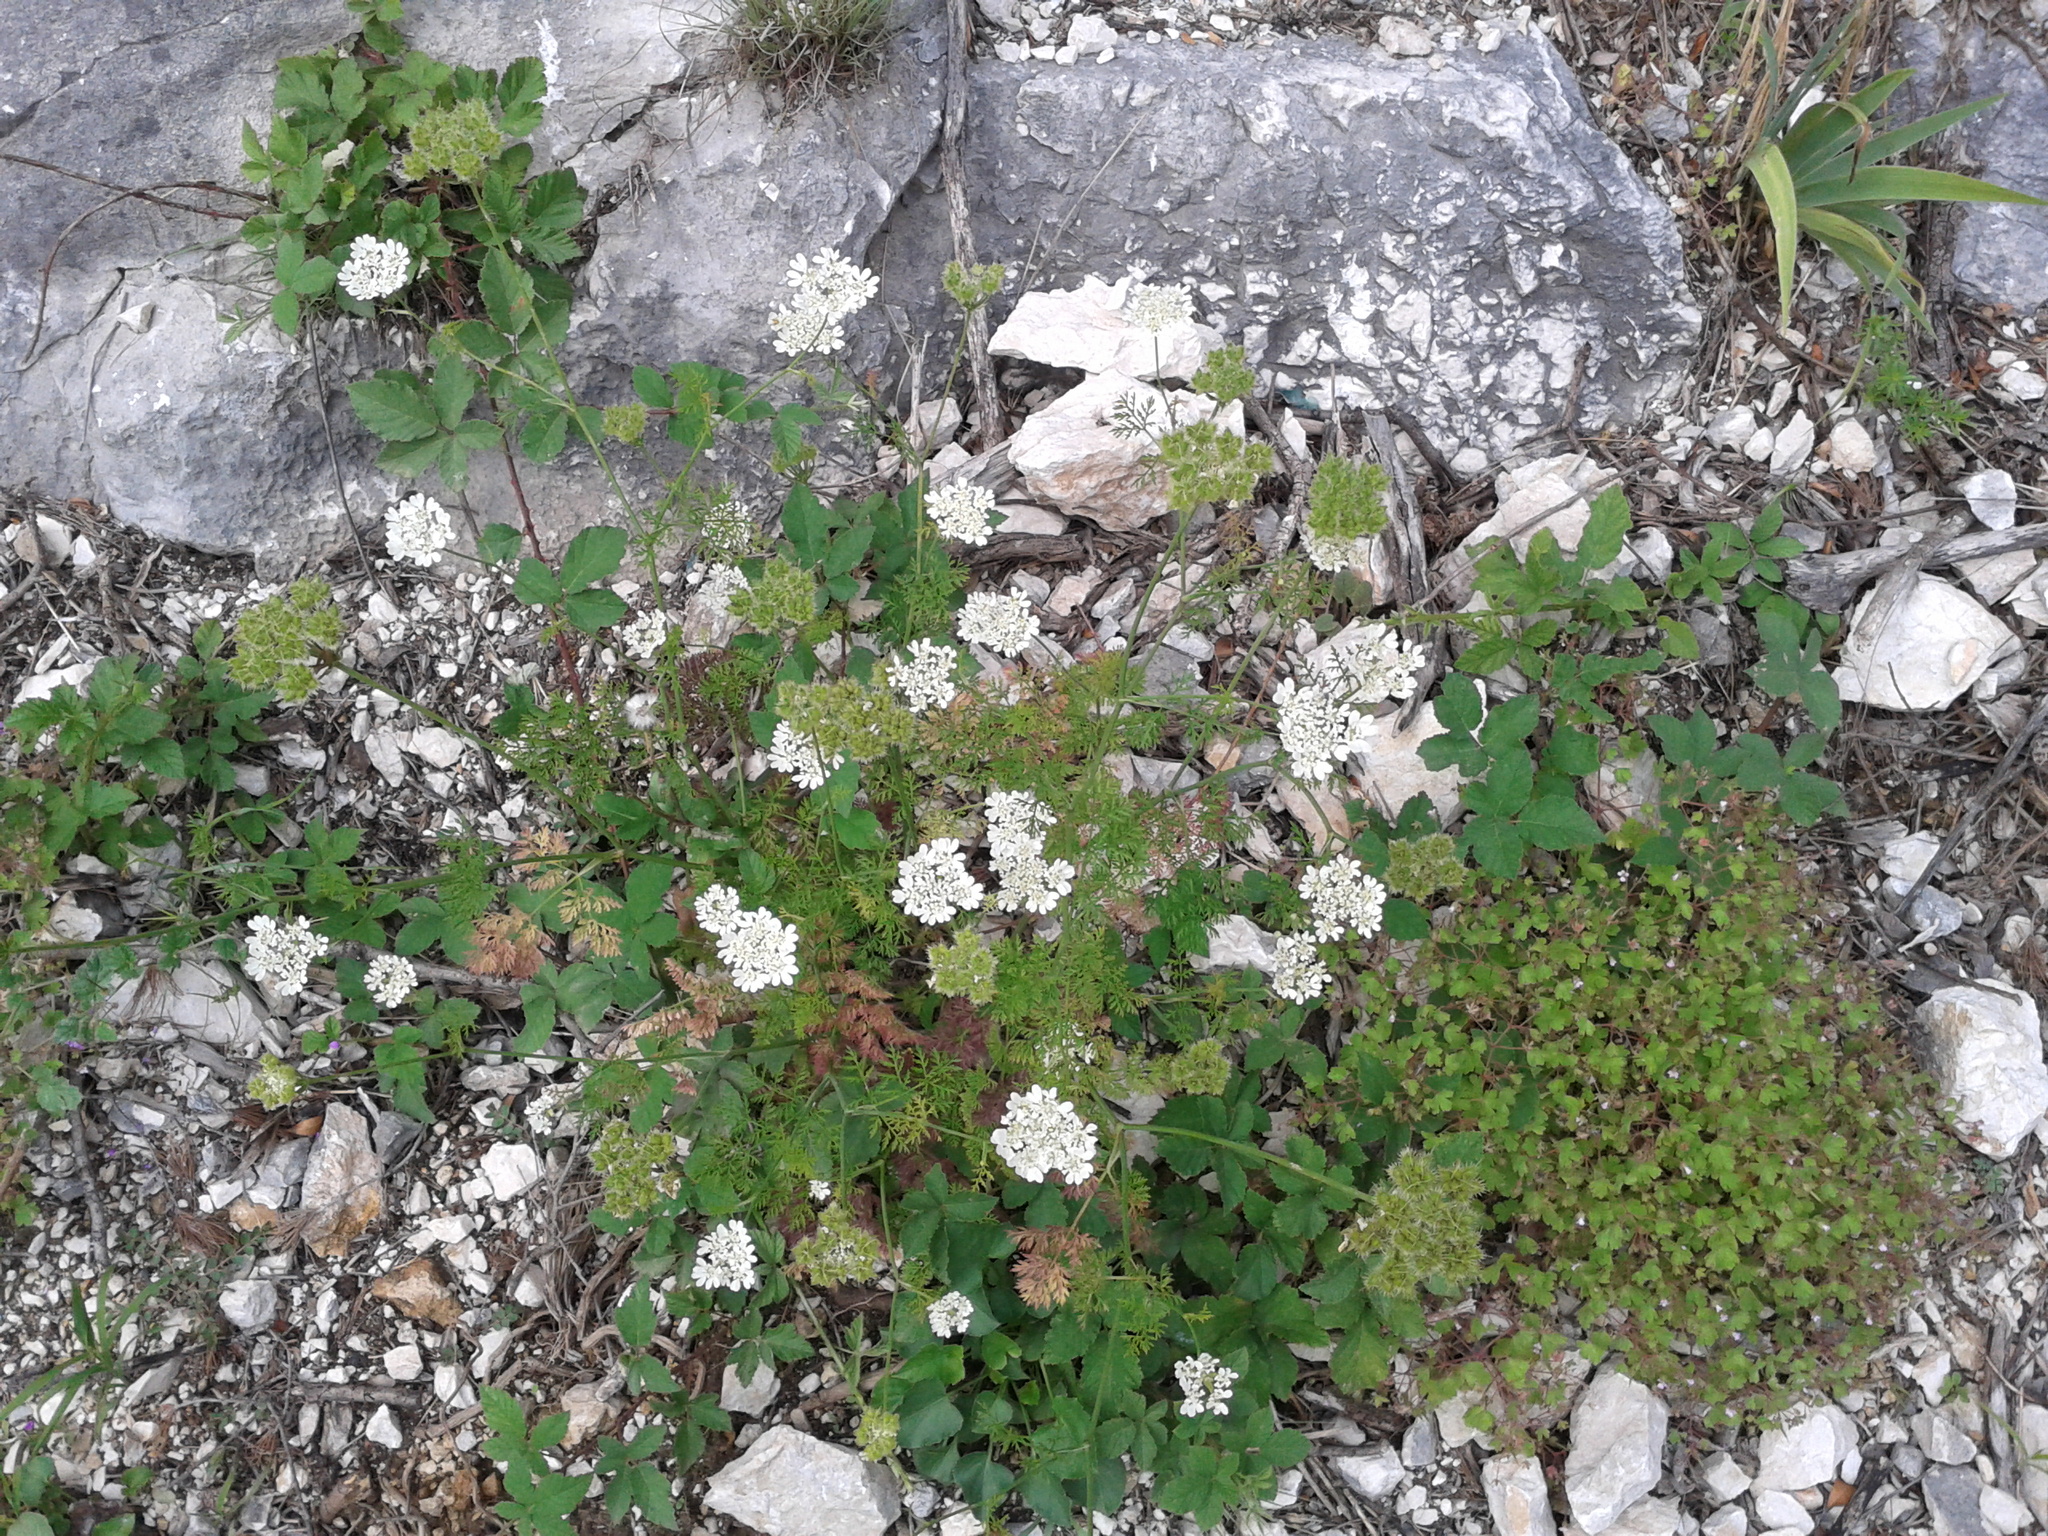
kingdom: Plantae
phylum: Tracheophyta
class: Magnoliopsida
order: Apiales
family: Apiaceae
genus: Orlaya
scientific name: Orlaya grandiflora
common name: White lace flower
